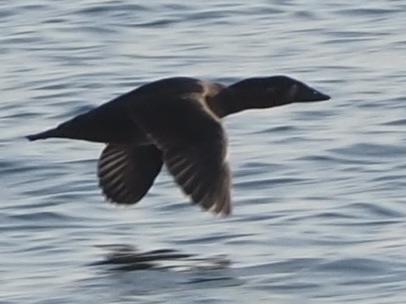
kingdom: Animalia
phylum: Chordata
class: Aves
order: Anseriformes
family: Anatidae
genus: Melanitta
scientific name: Melanitta perspicillata
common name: Surf scoter
